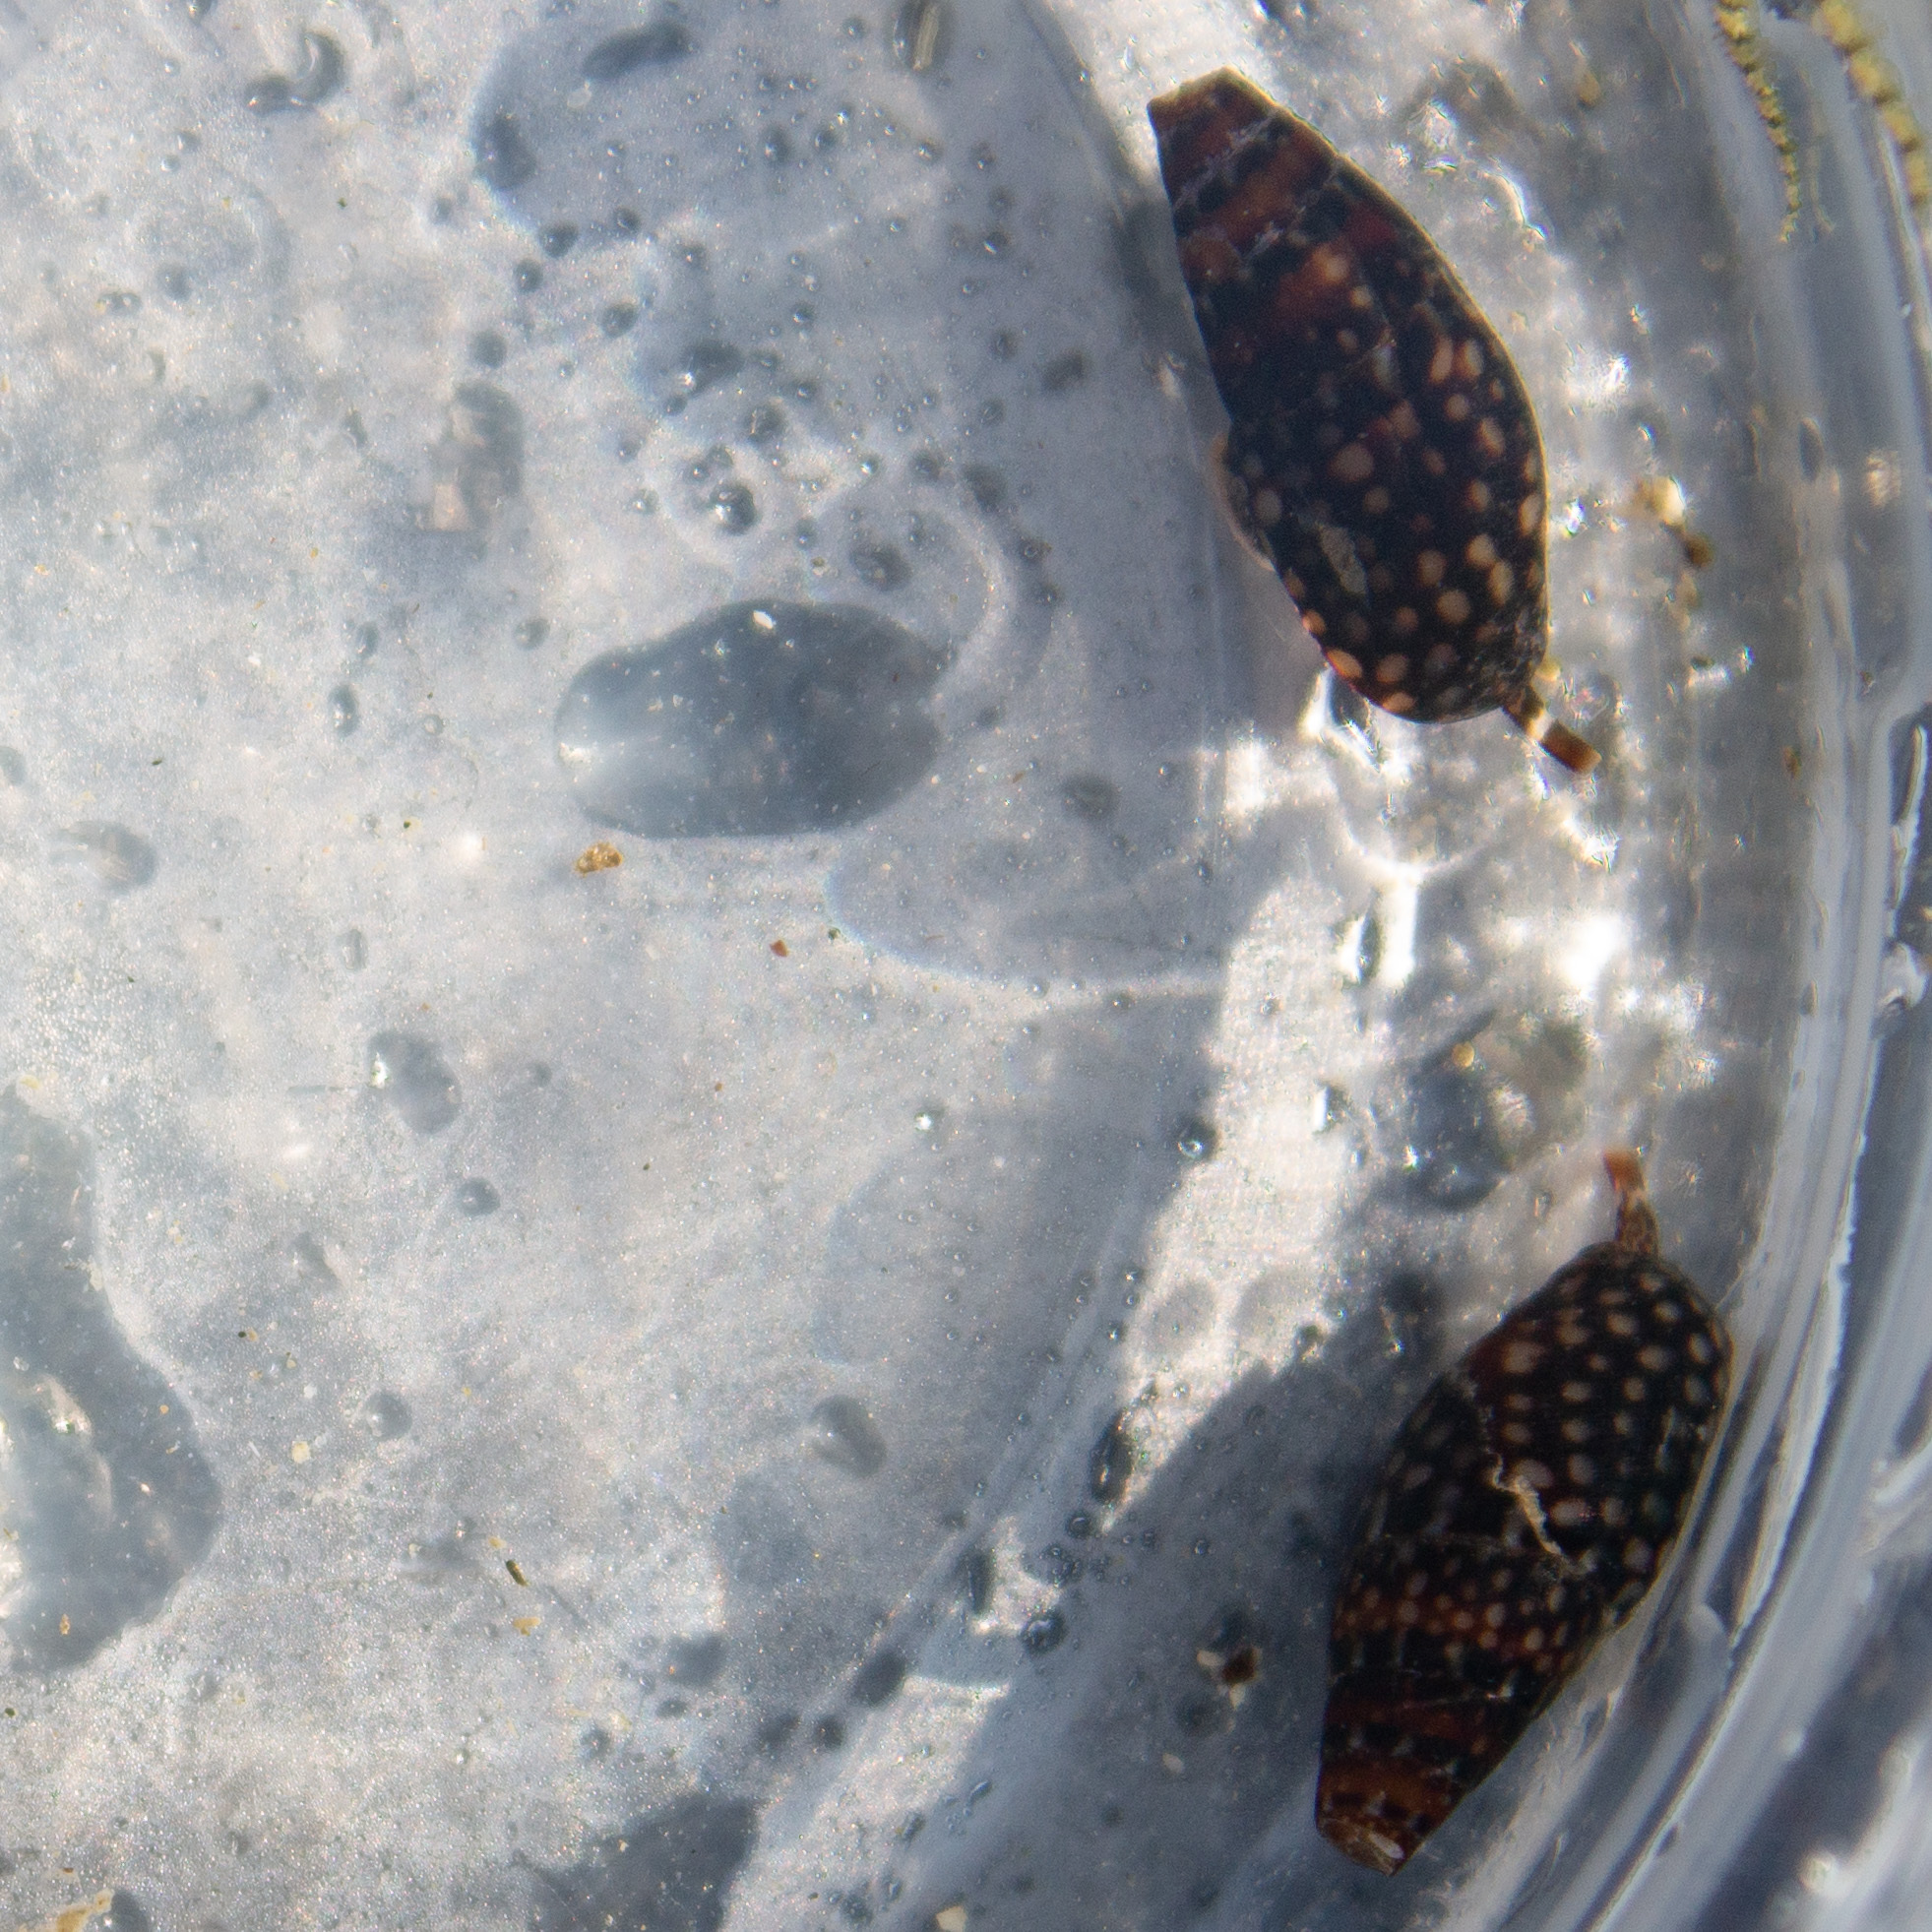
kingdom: Animalia
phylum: Mollusca
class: Gastropoda
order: Neogastropoda
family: Columbellidae
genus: Mitrella
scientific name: Mitrella ocellata
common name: White-spot dovesnail
